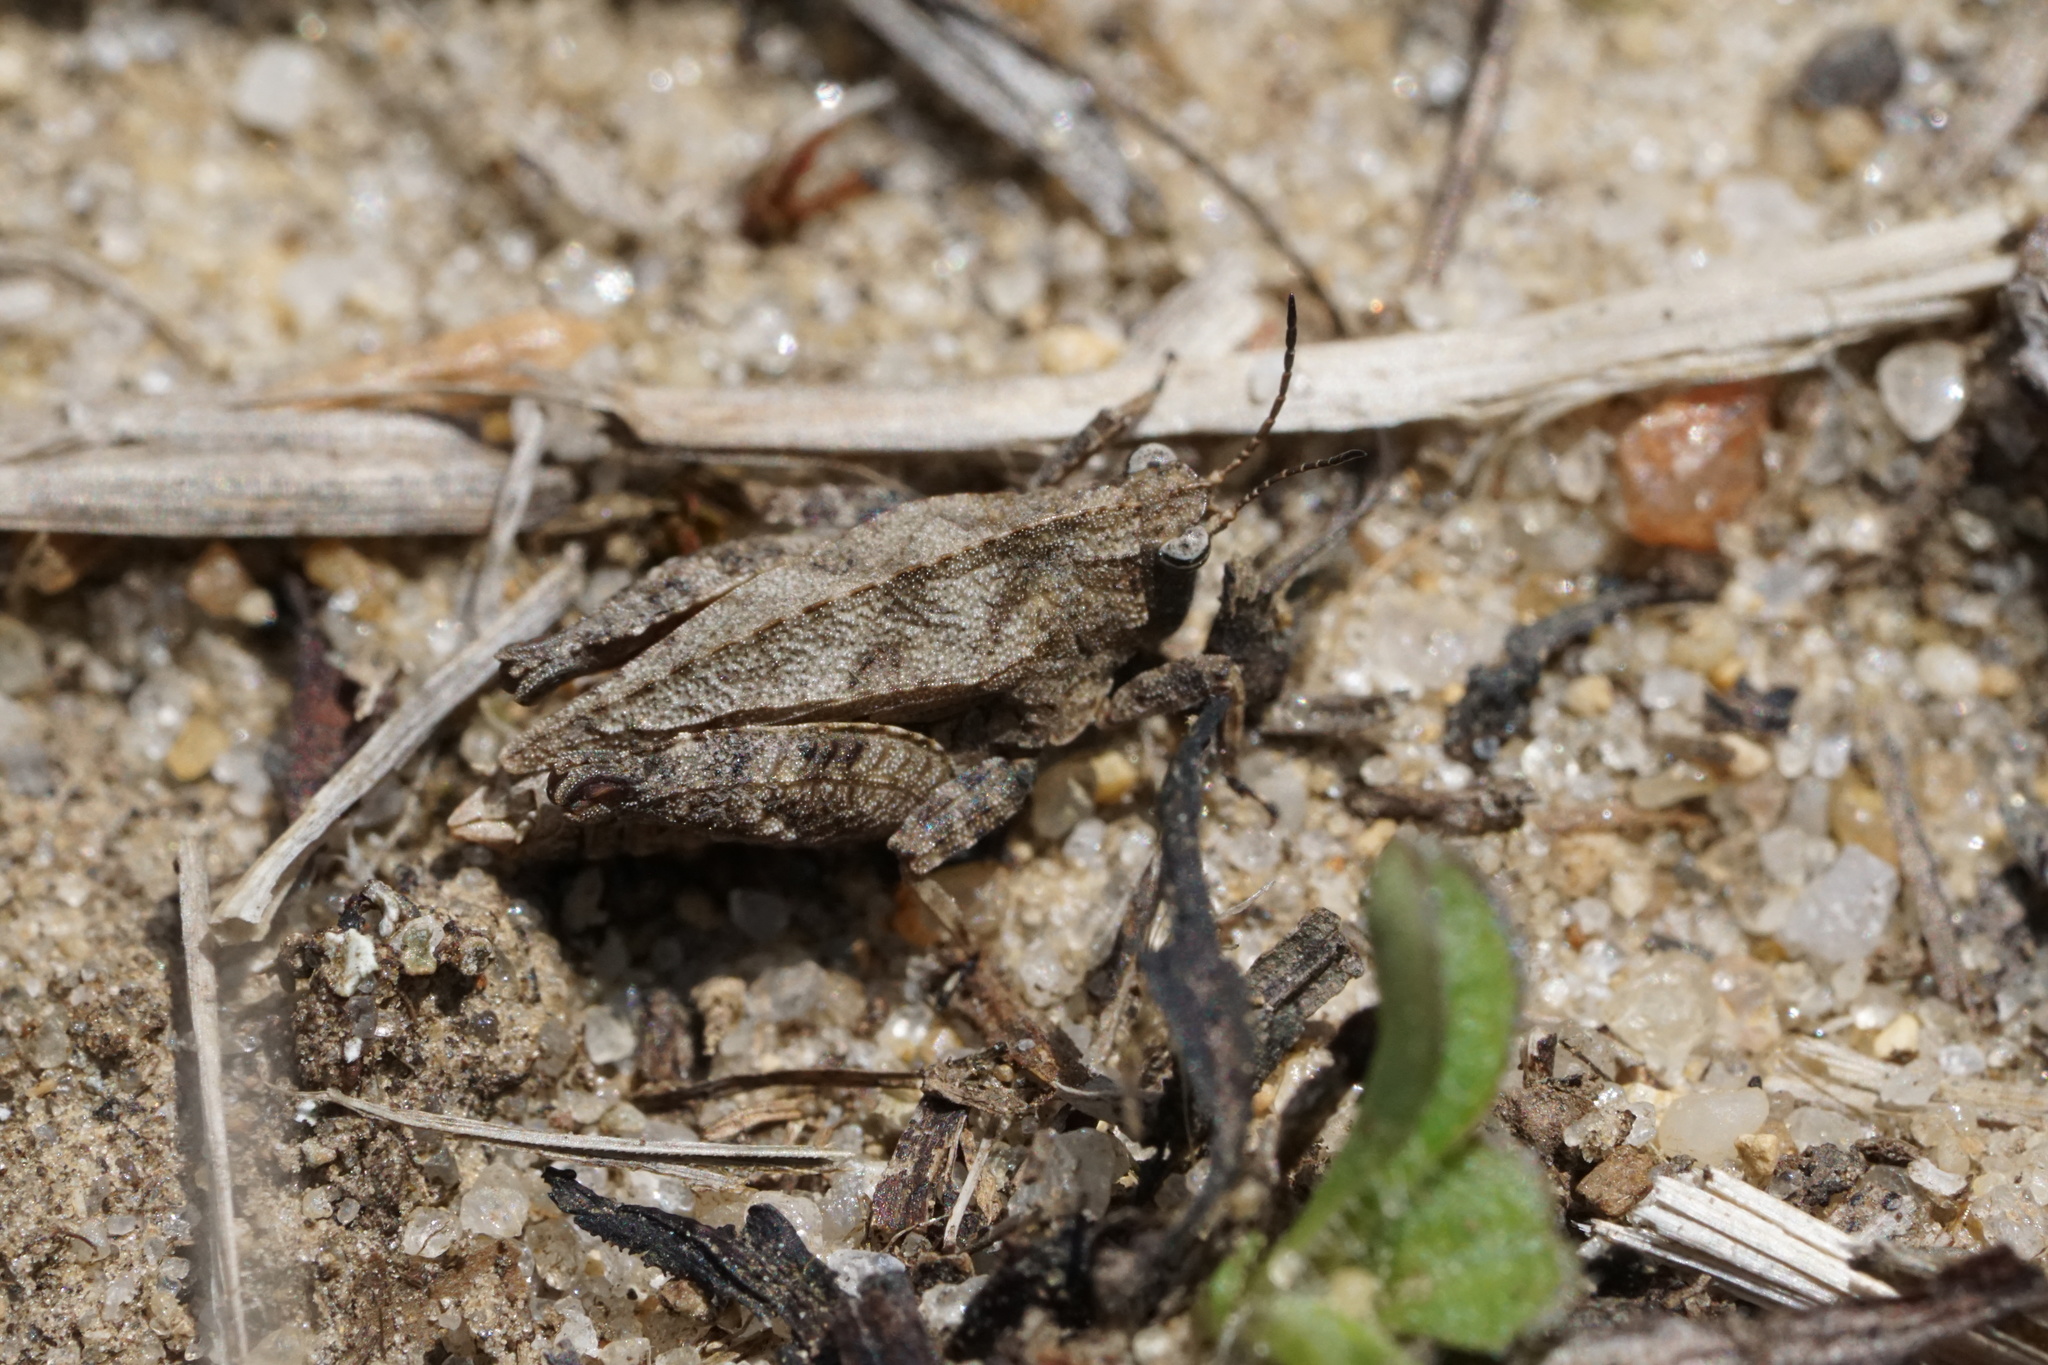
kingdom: Animalia
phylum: Arthropoda
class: Insecta
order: Orthoptera
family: Tetrigidae
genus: Nomotettix
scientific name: Nomotettix cristatus
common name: Crested grouse locust
